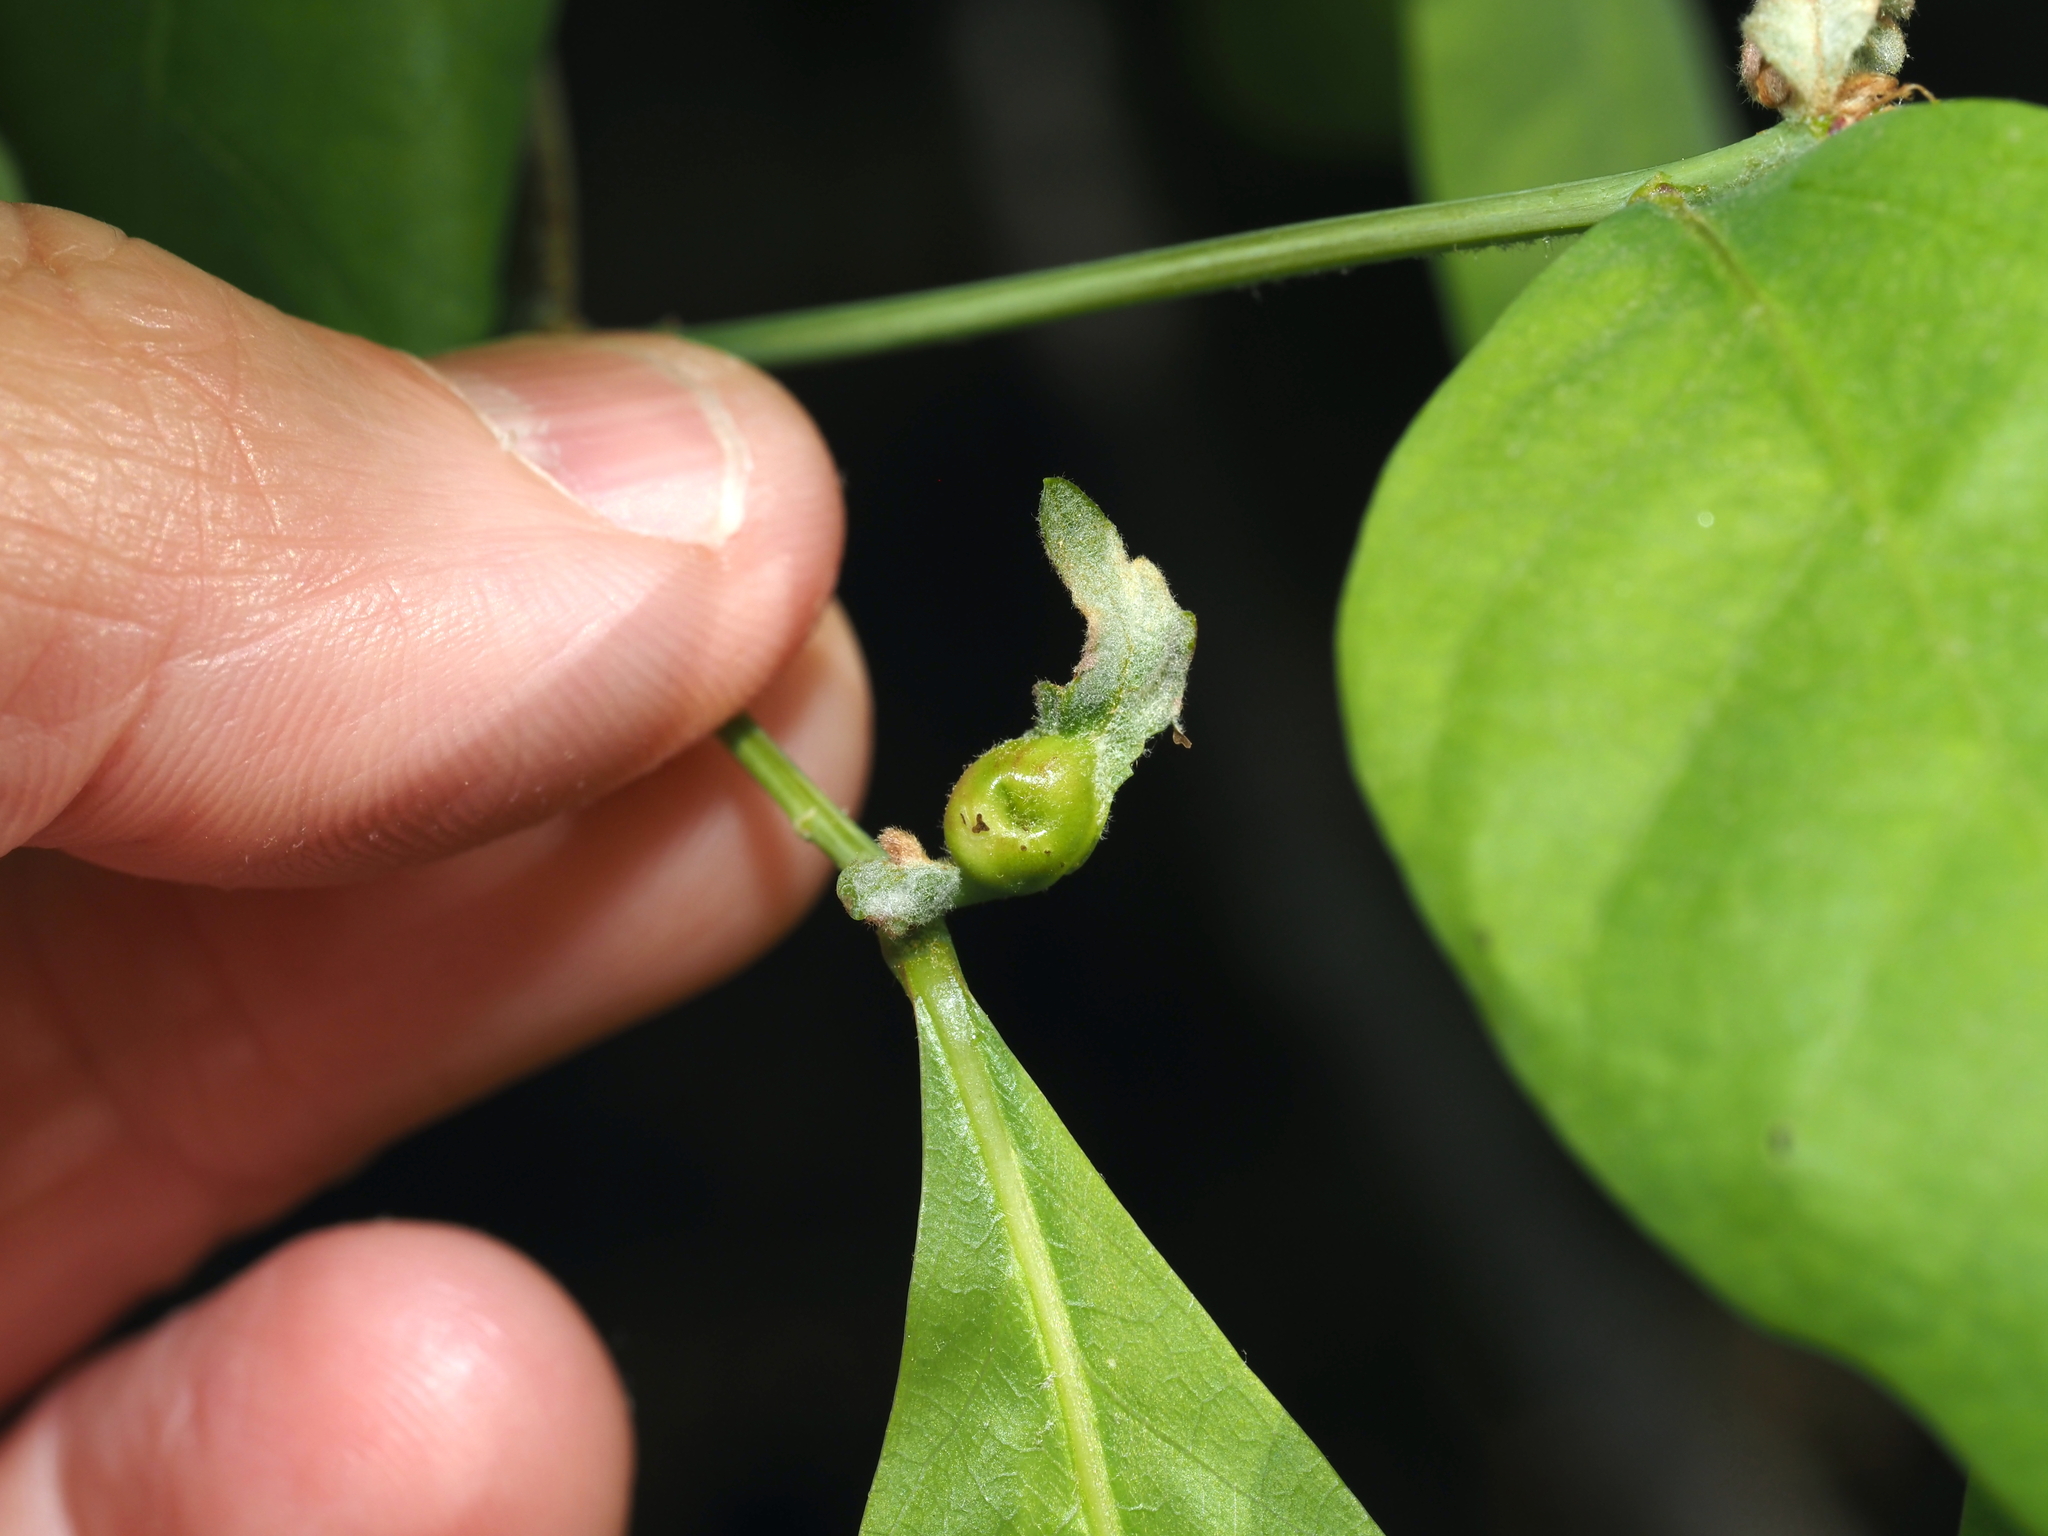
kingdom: Animalia
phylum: Arthropoda
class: Insecta
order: Hymenoptera
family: Cynipidae
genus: Andricus
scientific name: Andricus
